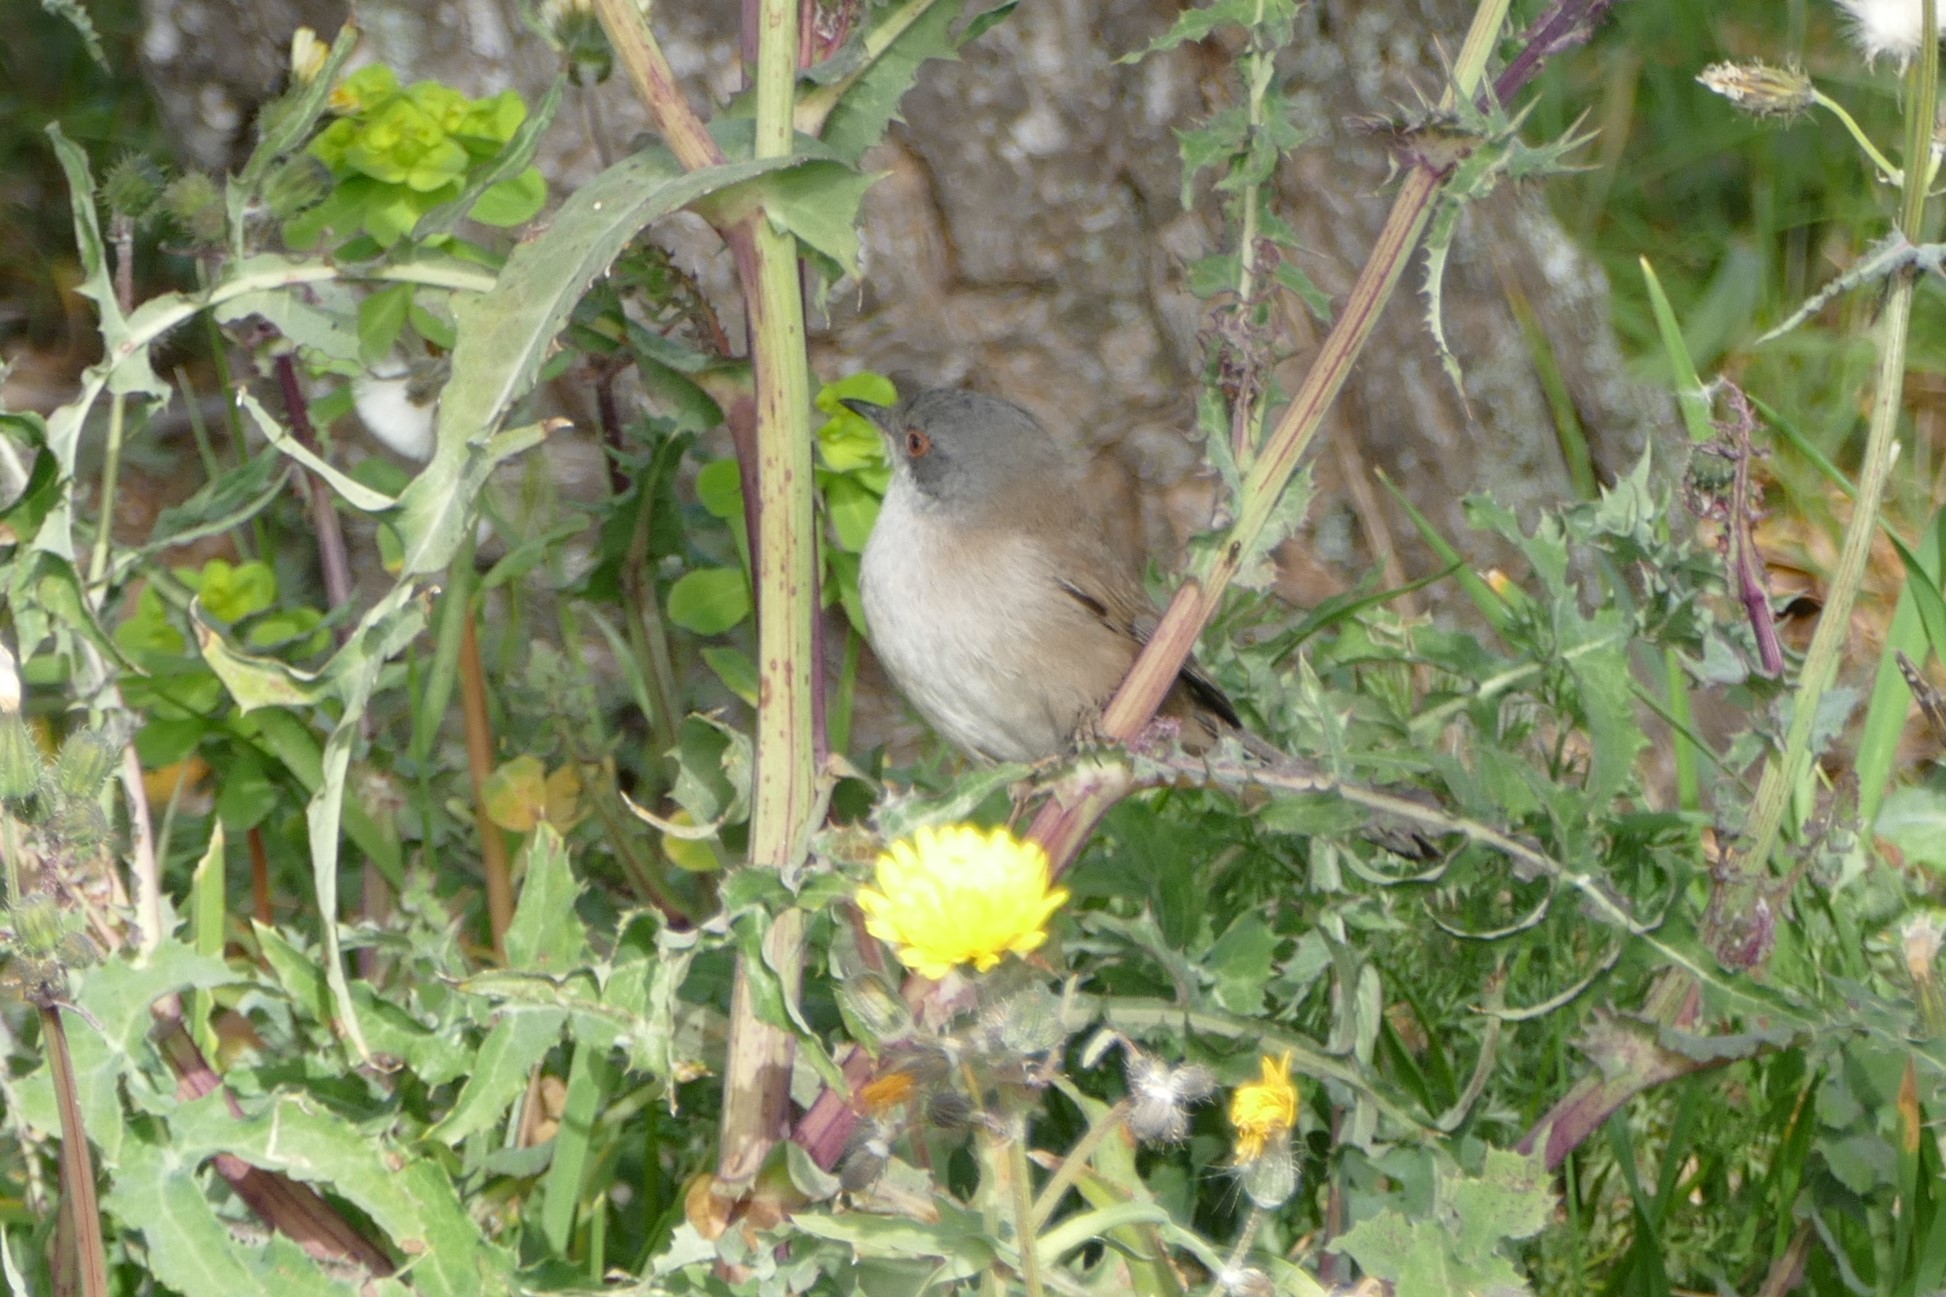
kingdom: Animalia
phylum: Chordata
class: Aves
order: Passeriformes
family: Sylviidae
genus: Curruca
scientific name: Curruca melanocephala
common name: Sardinian warbler
